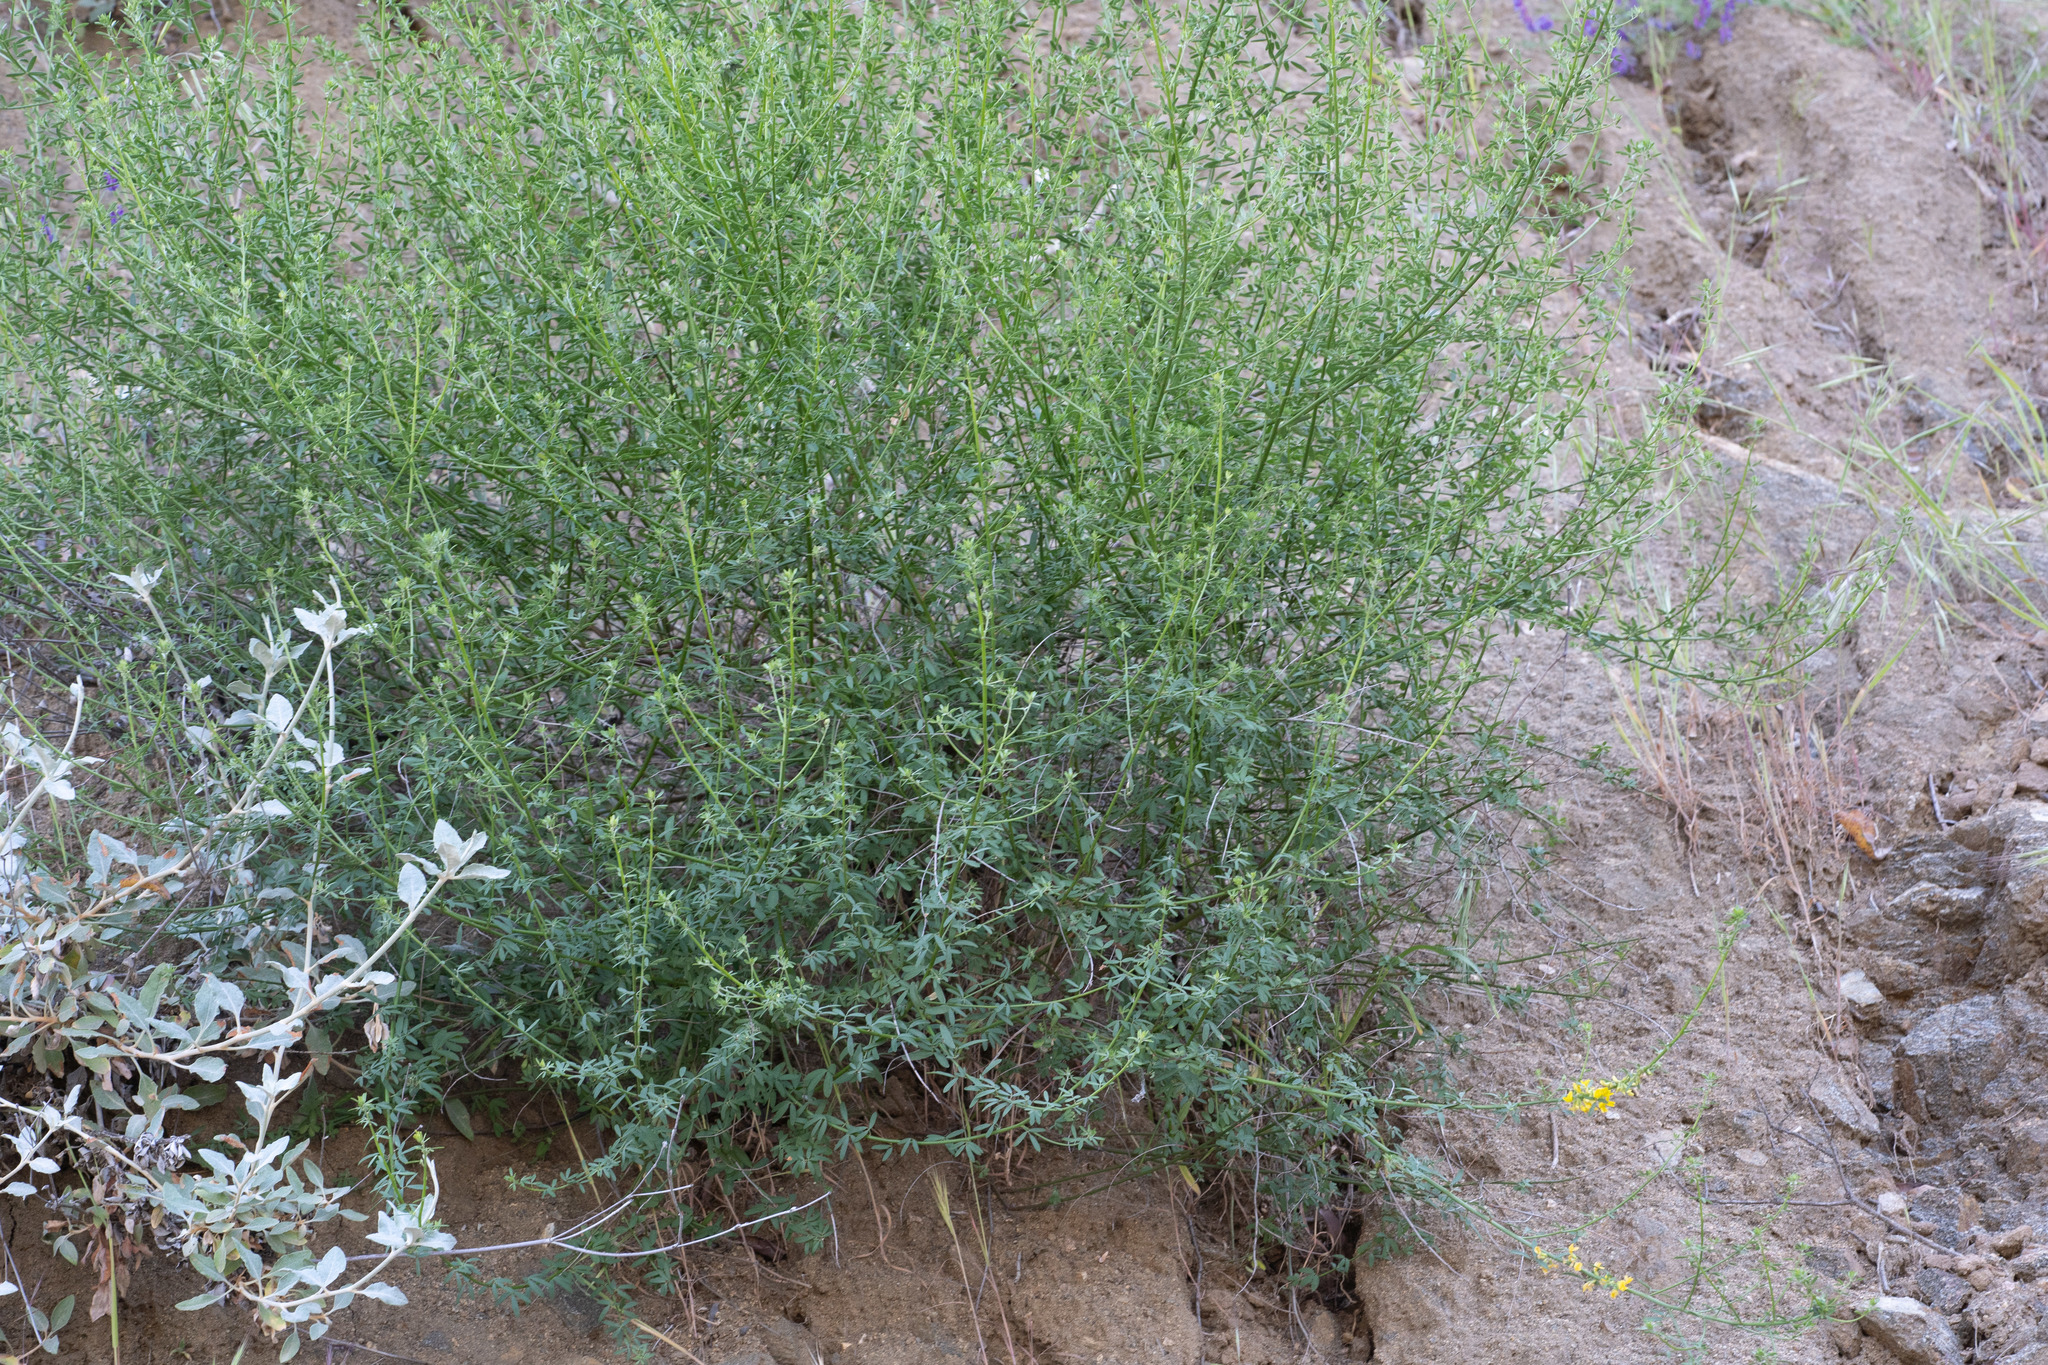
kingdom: Plantae
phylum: Tracheophyta
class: Magnoliopsida
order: Fabales
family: Fabaceae
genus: Acmispon
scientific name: Acmispon glaber
